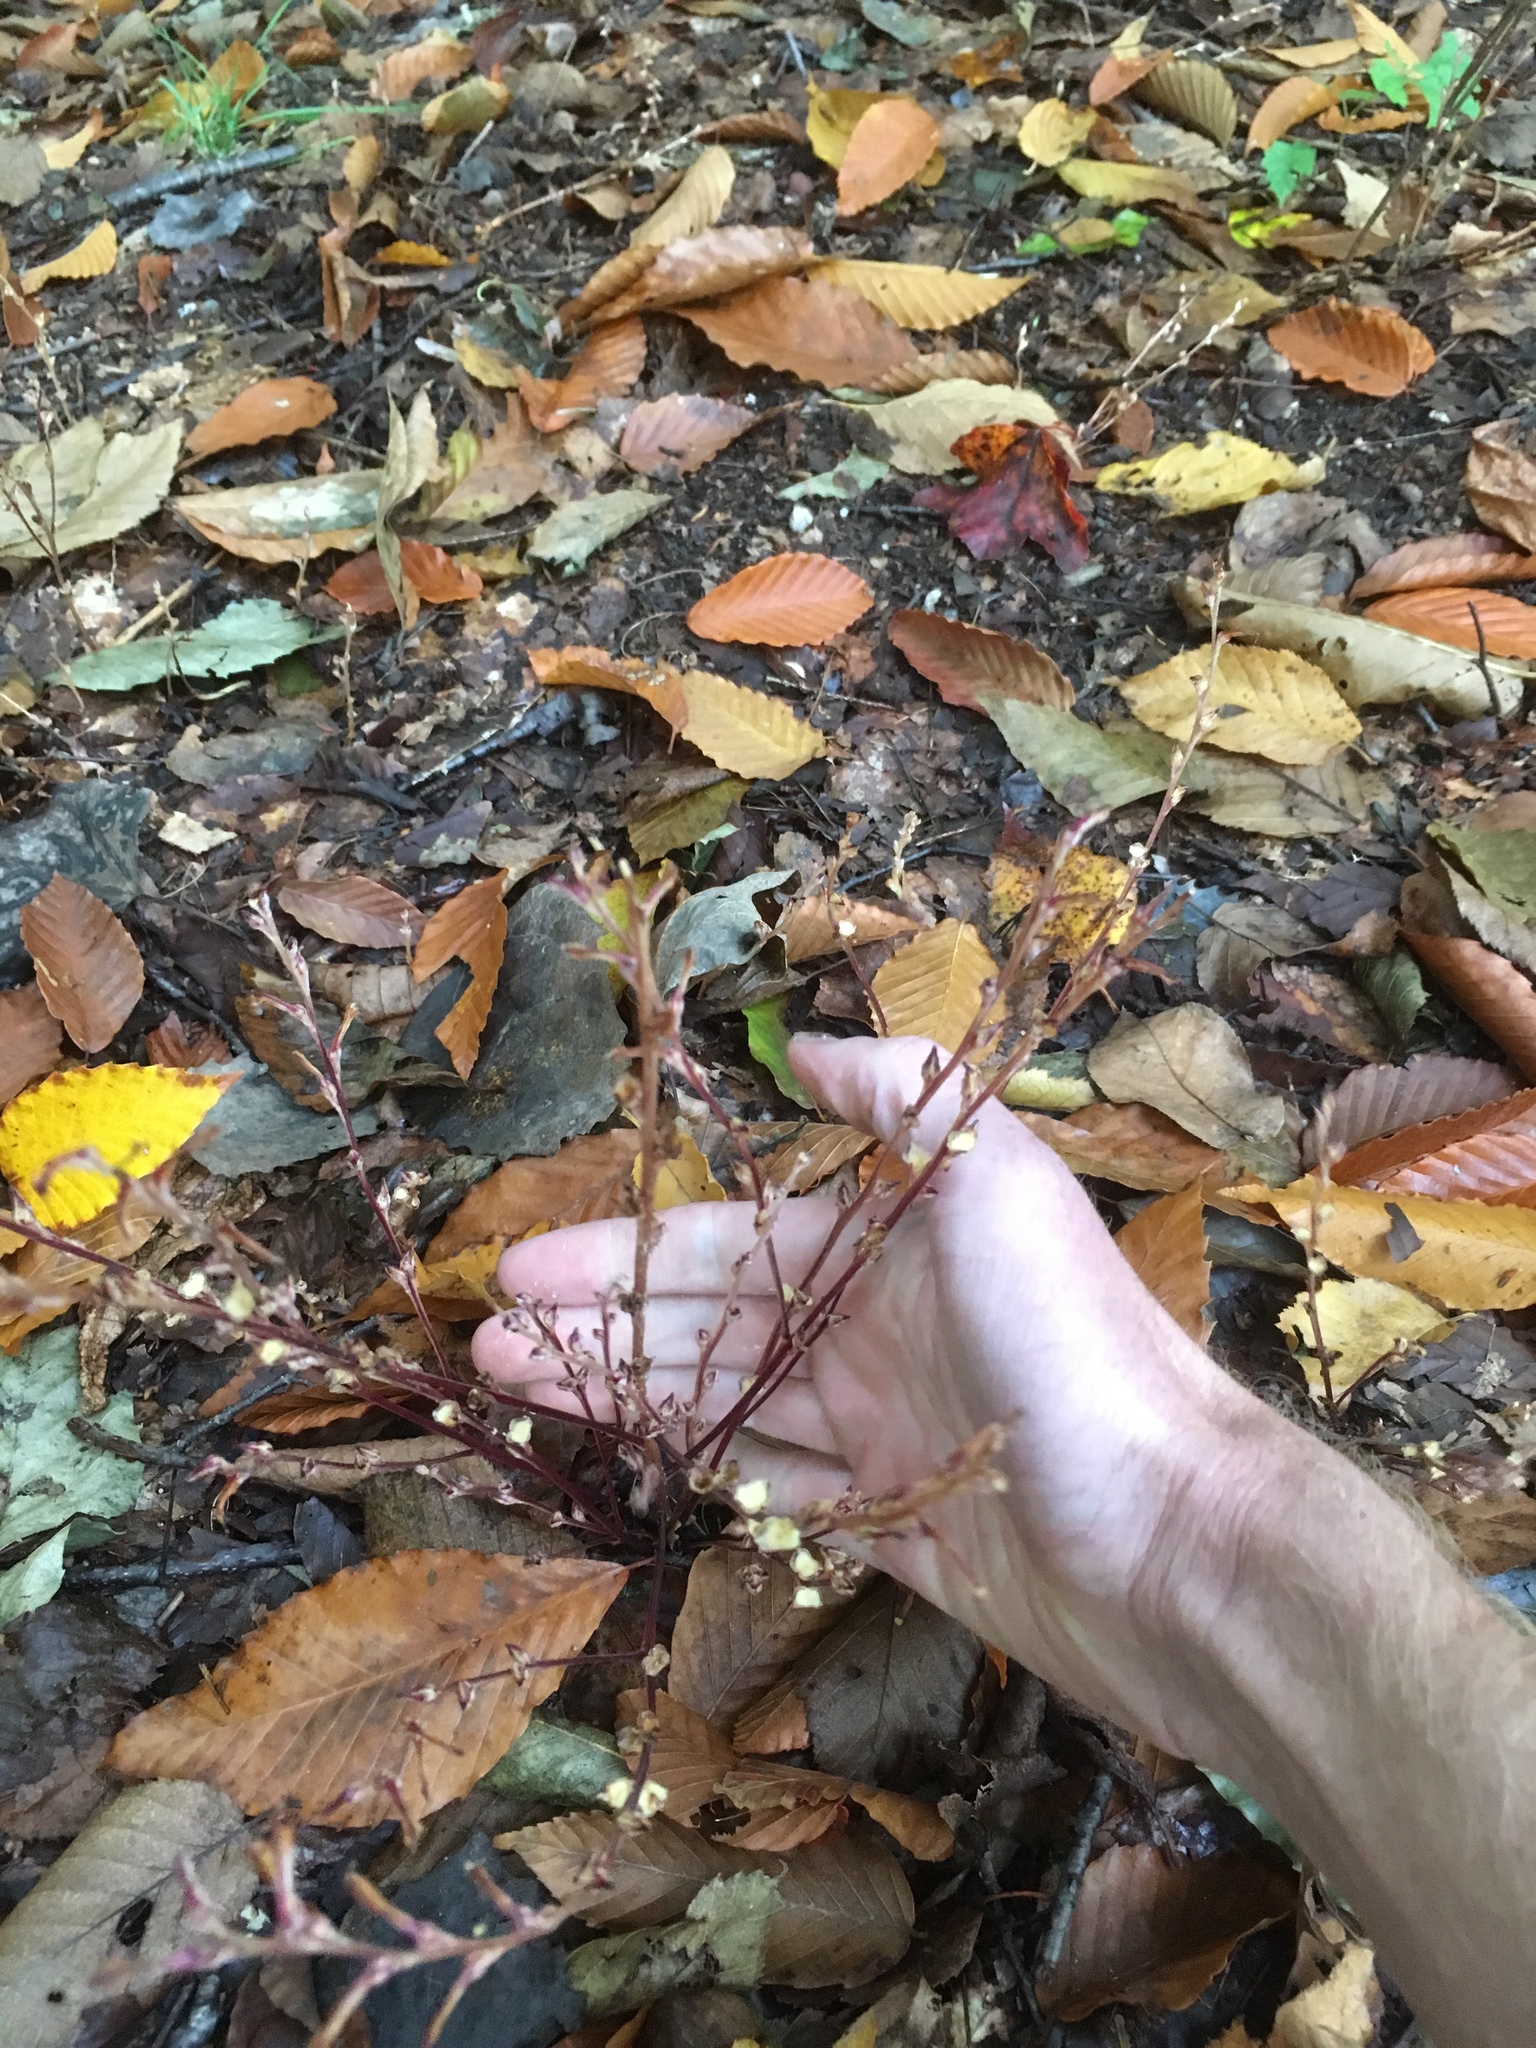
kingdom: Plantae
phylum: Tracheophyta
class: Magnoliopsida
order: Lamiales
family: Orobanchaceae
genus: Epifagus
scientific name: Epifagus virginiana
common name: Beechdrops
